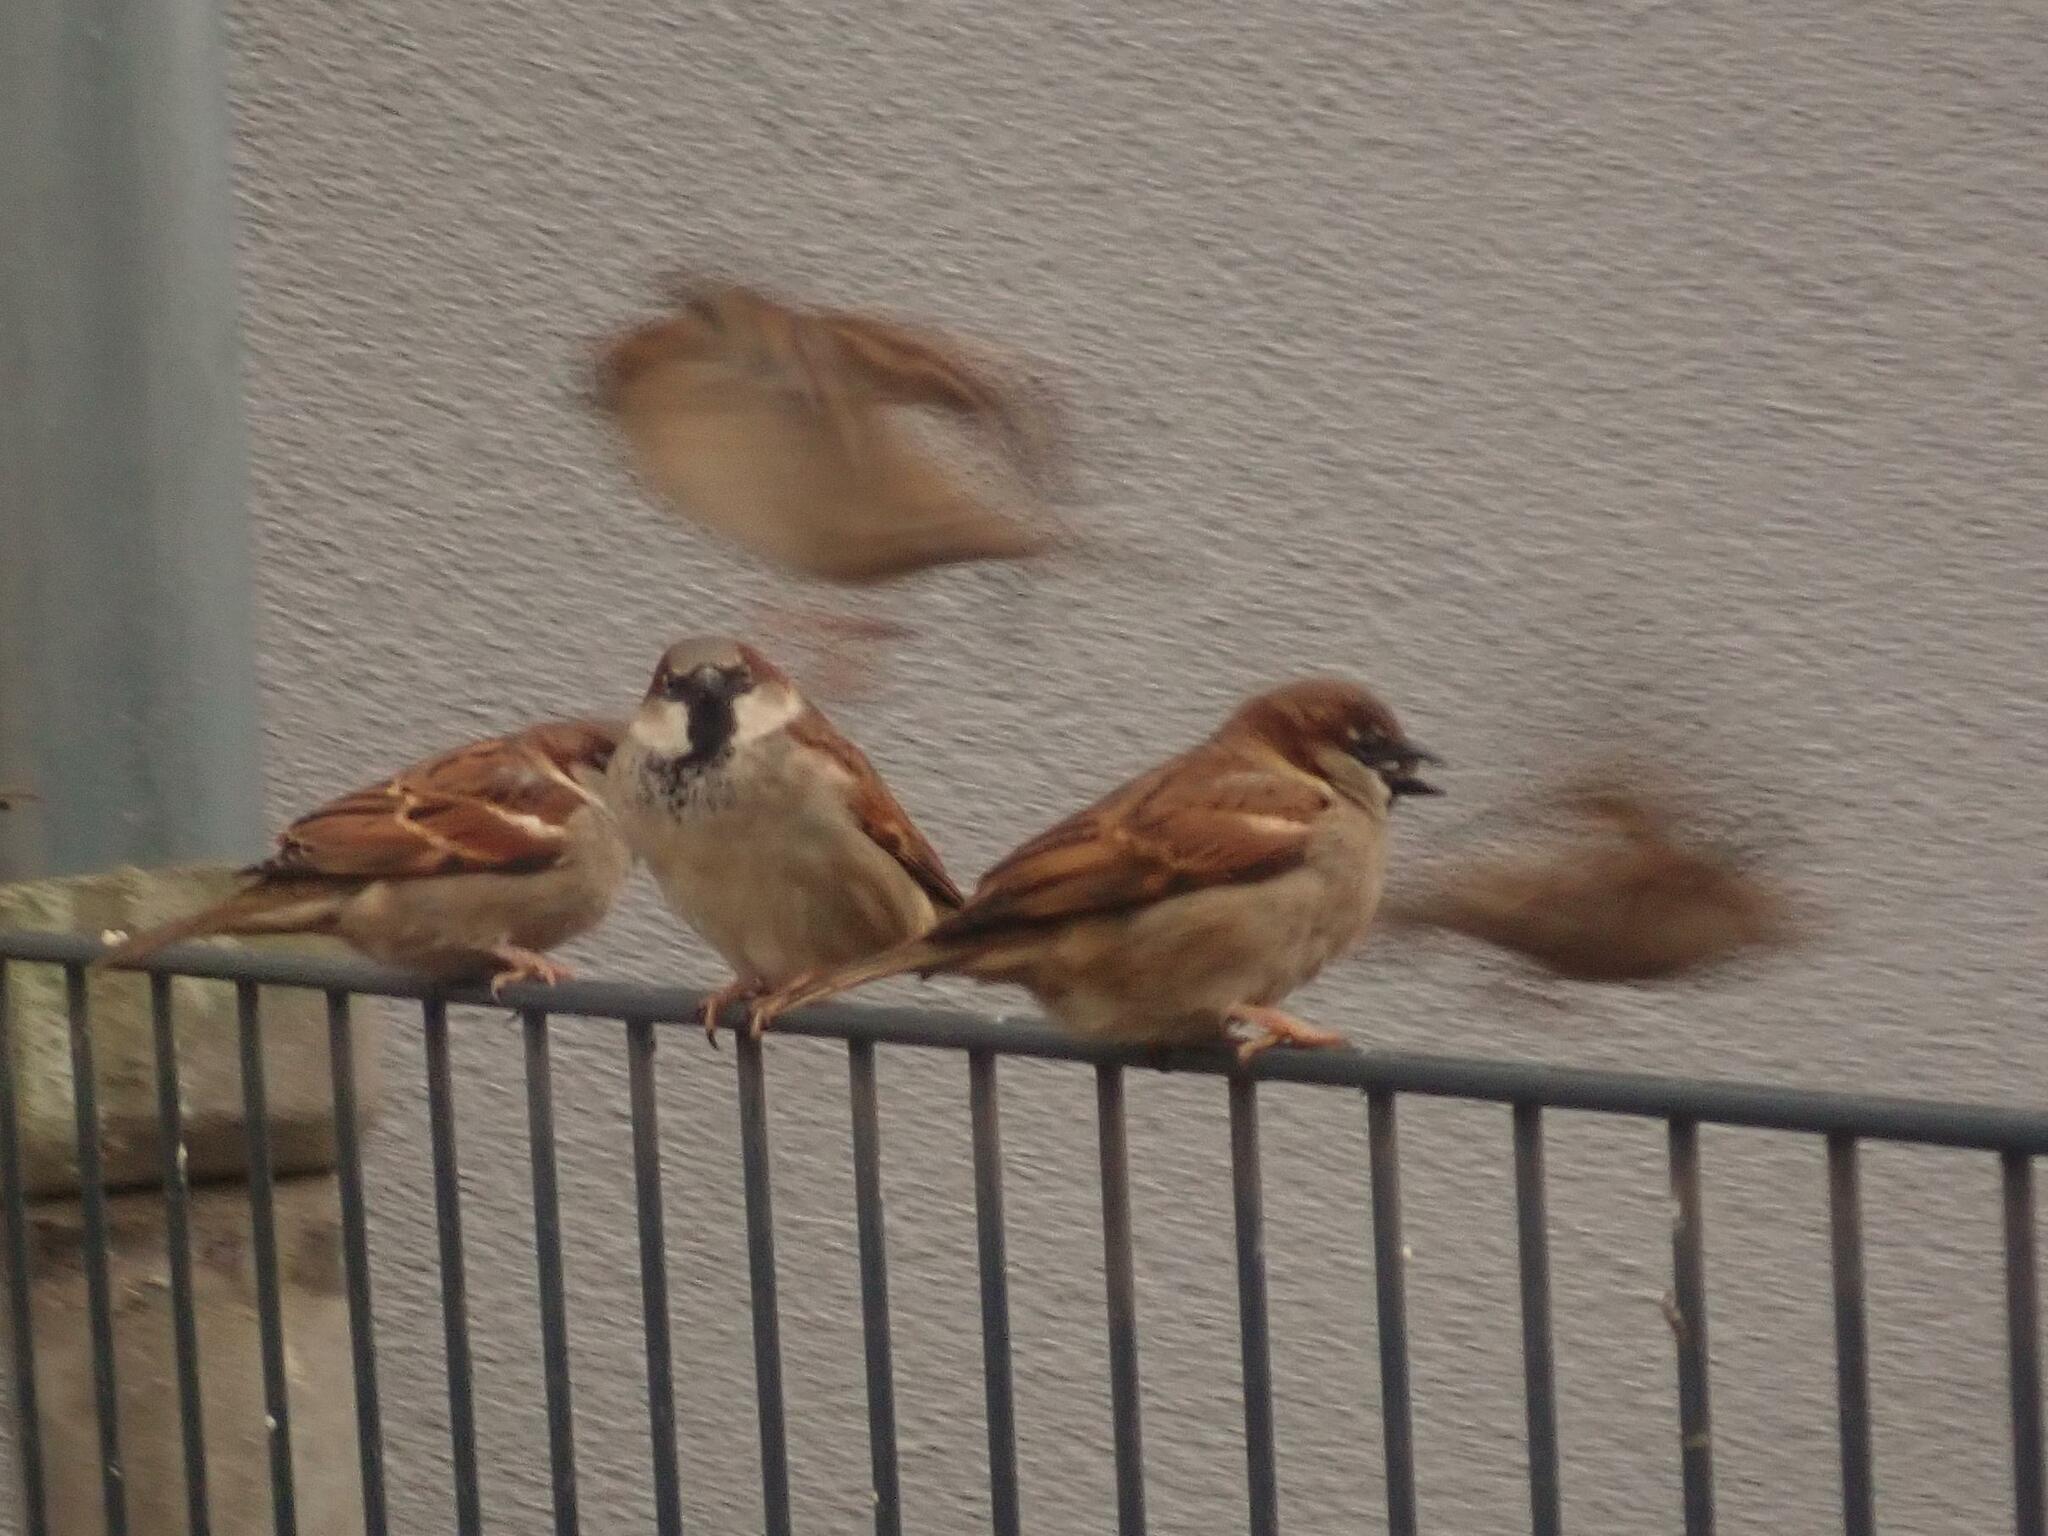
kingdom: Animalia
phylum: Chordata
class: Aves
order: Passeriformes
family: Passeridae
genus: Passer
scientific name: Passer domesticus
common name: House sparrow
